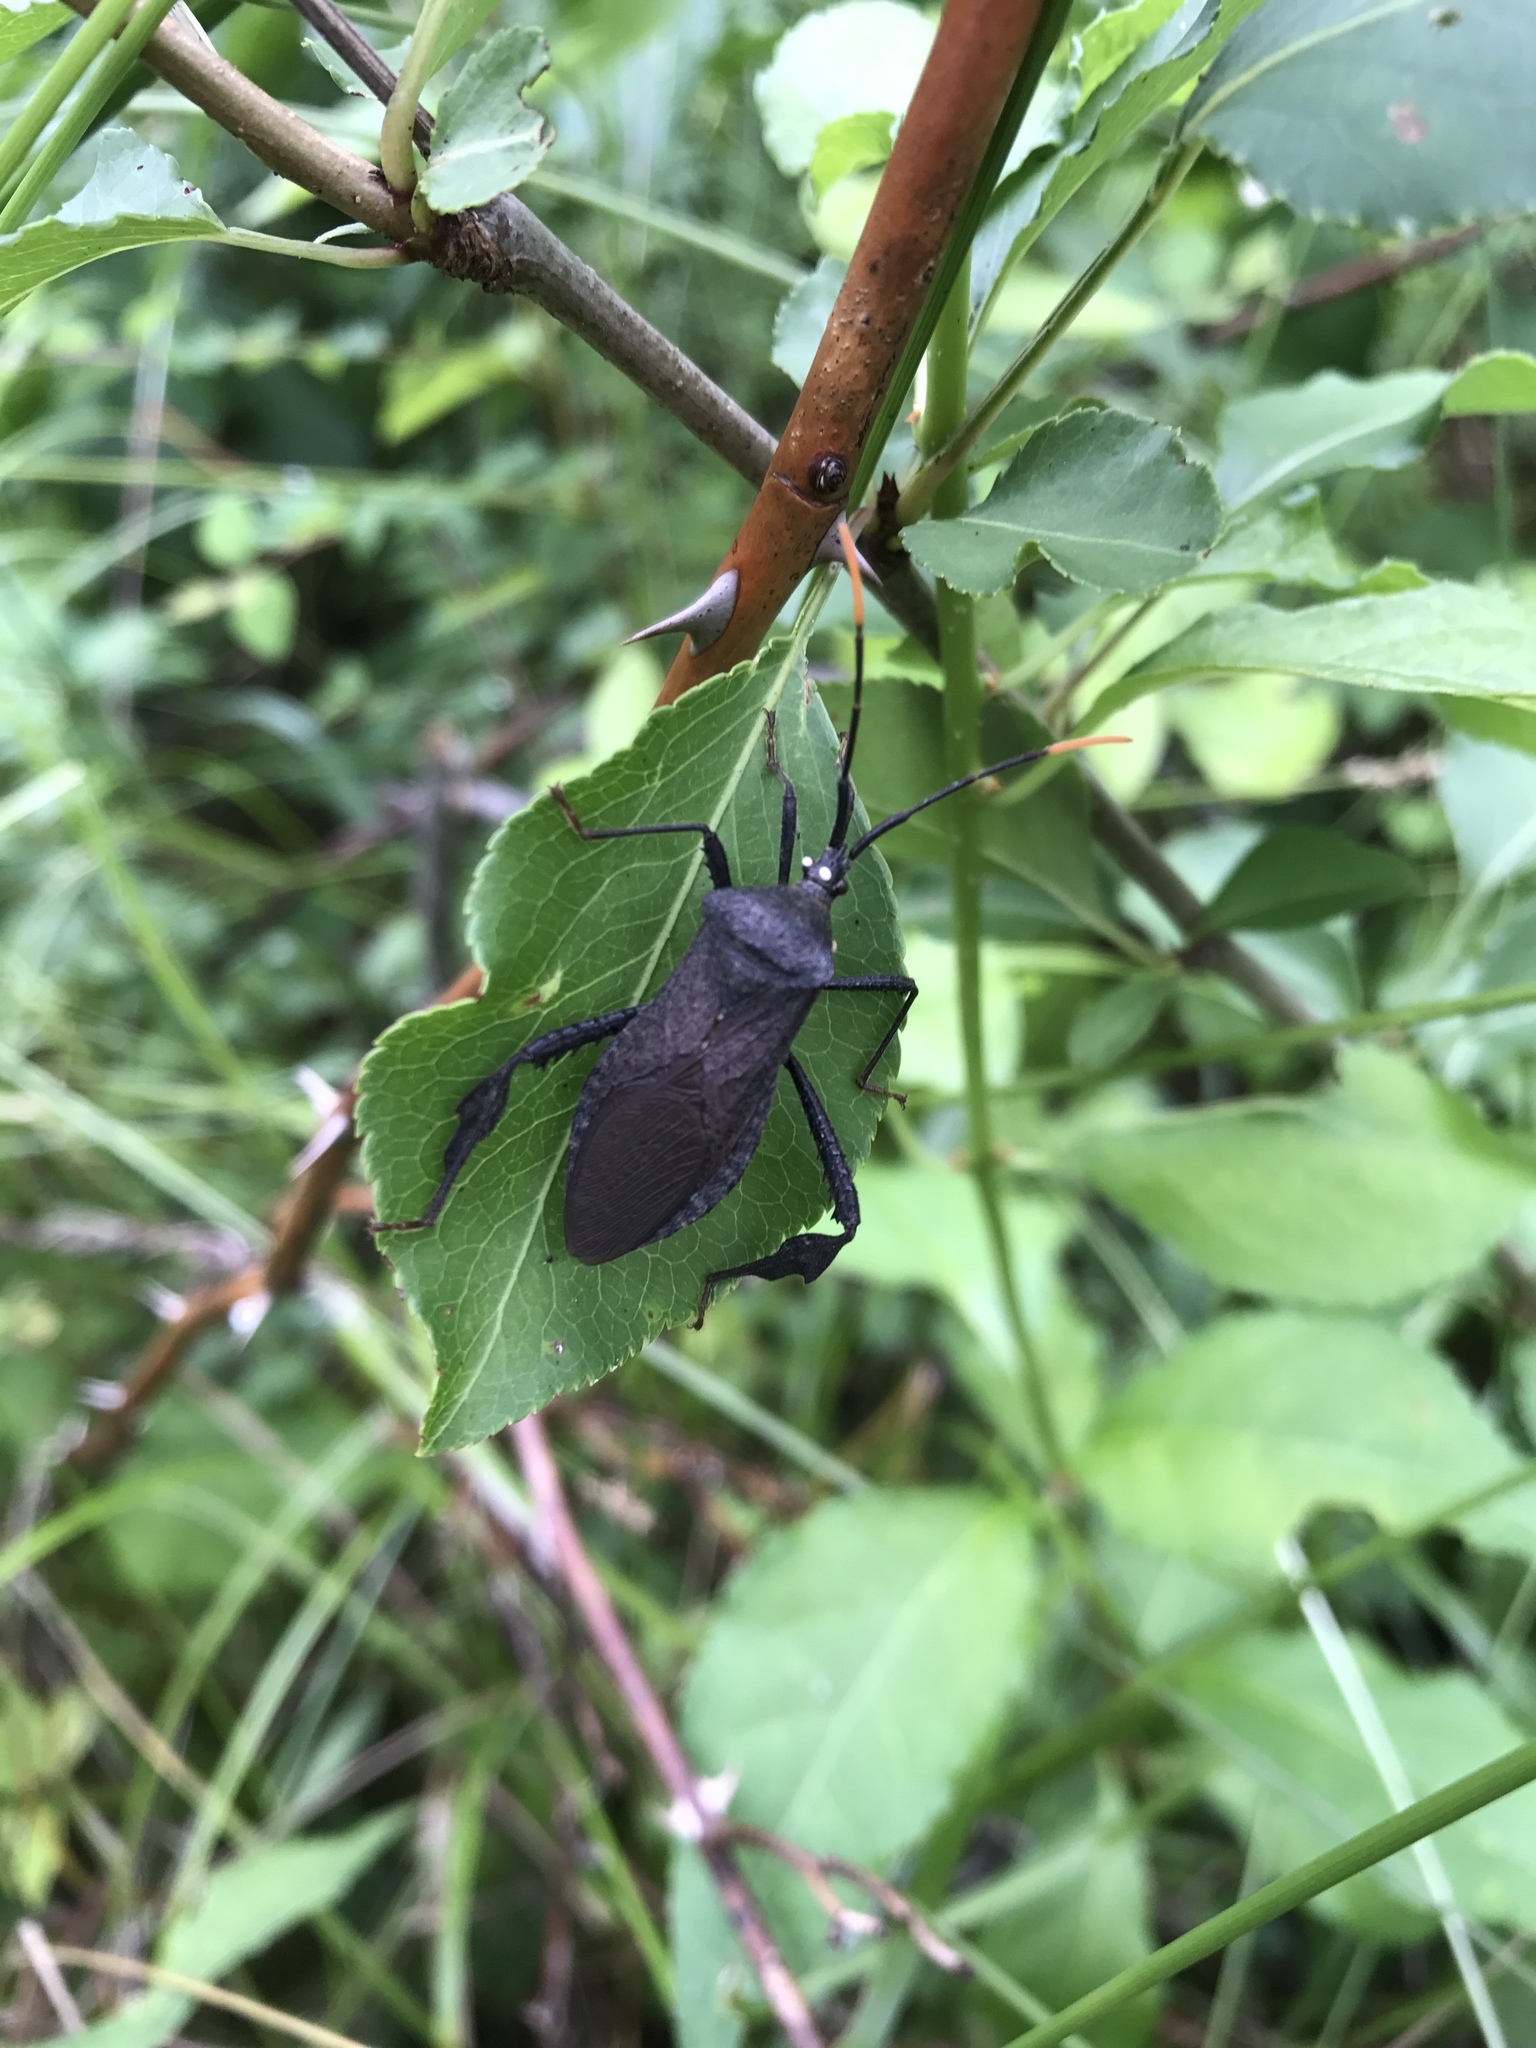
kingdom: Animalia
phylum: Arthropoda
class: Insecta
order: Hemiptera
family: Coreidae
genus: Acanthocephala
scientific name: Acanthocephala terminalis
